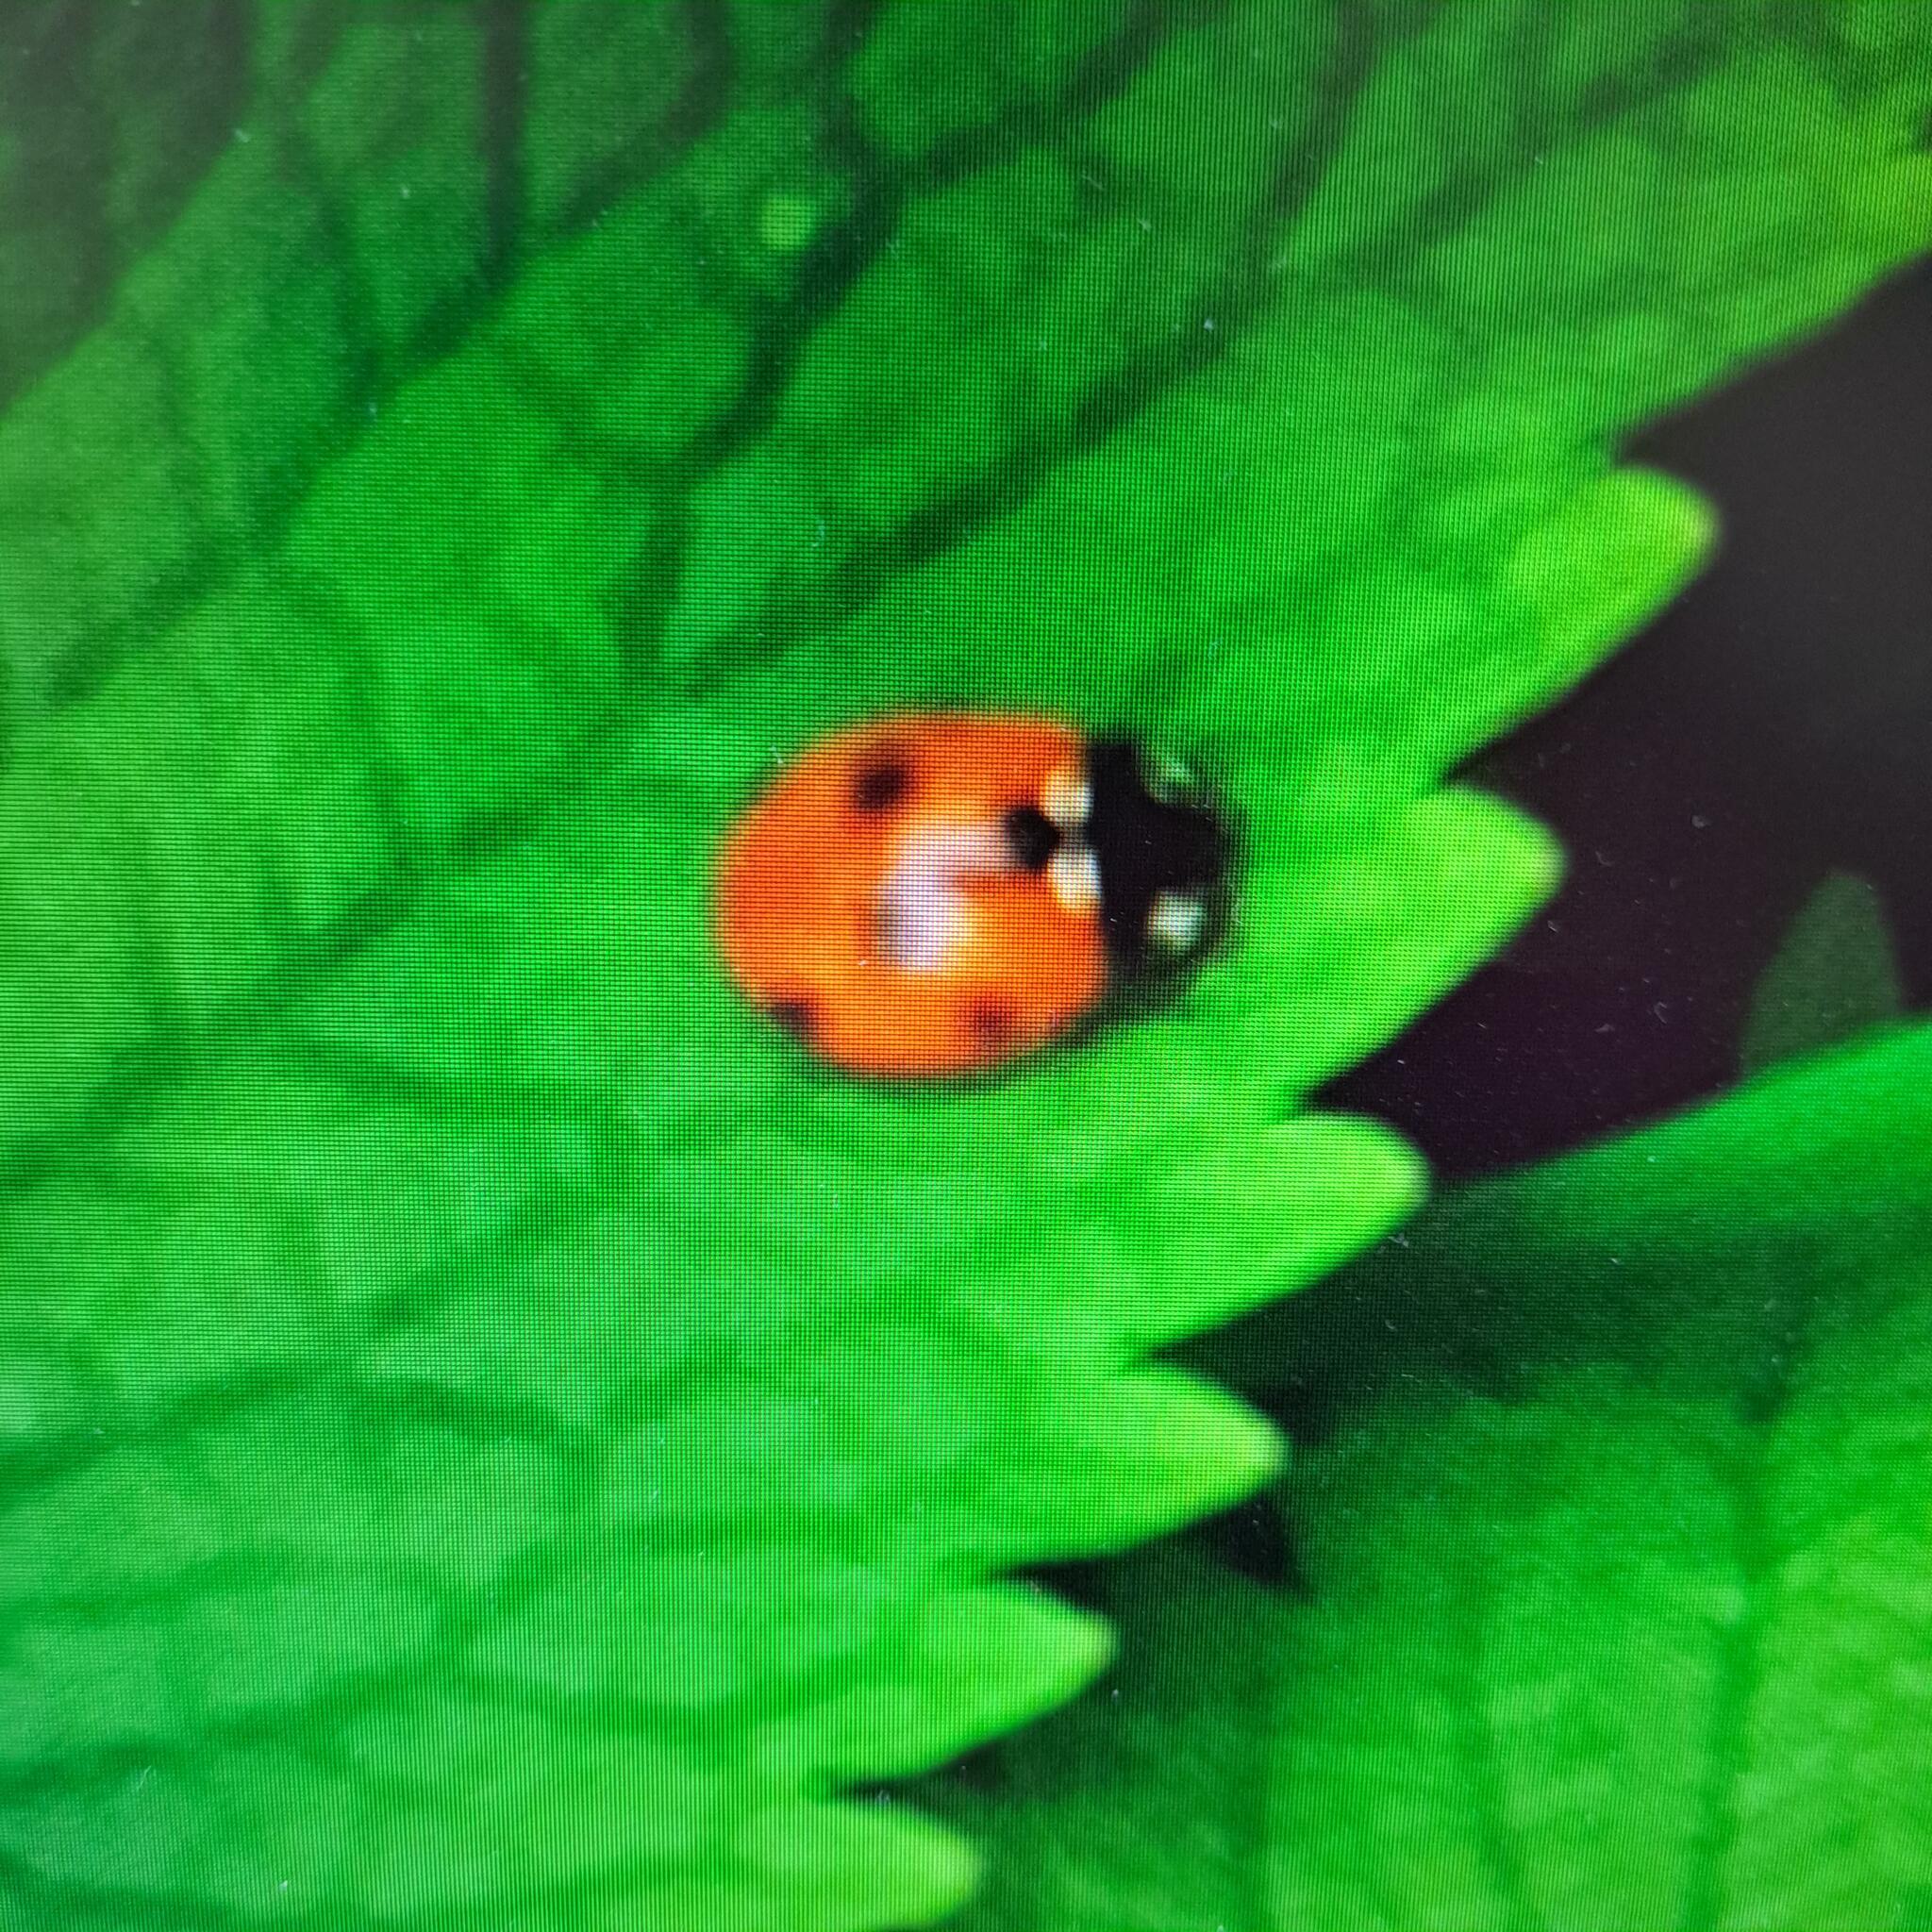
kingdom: Animalia
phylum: Arthropoda
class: Insecta
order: Coleoptera
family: Coccinellidae
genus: Coccinella
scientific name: Coccinella septempunctata
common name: Sevenspotted lady beetle
